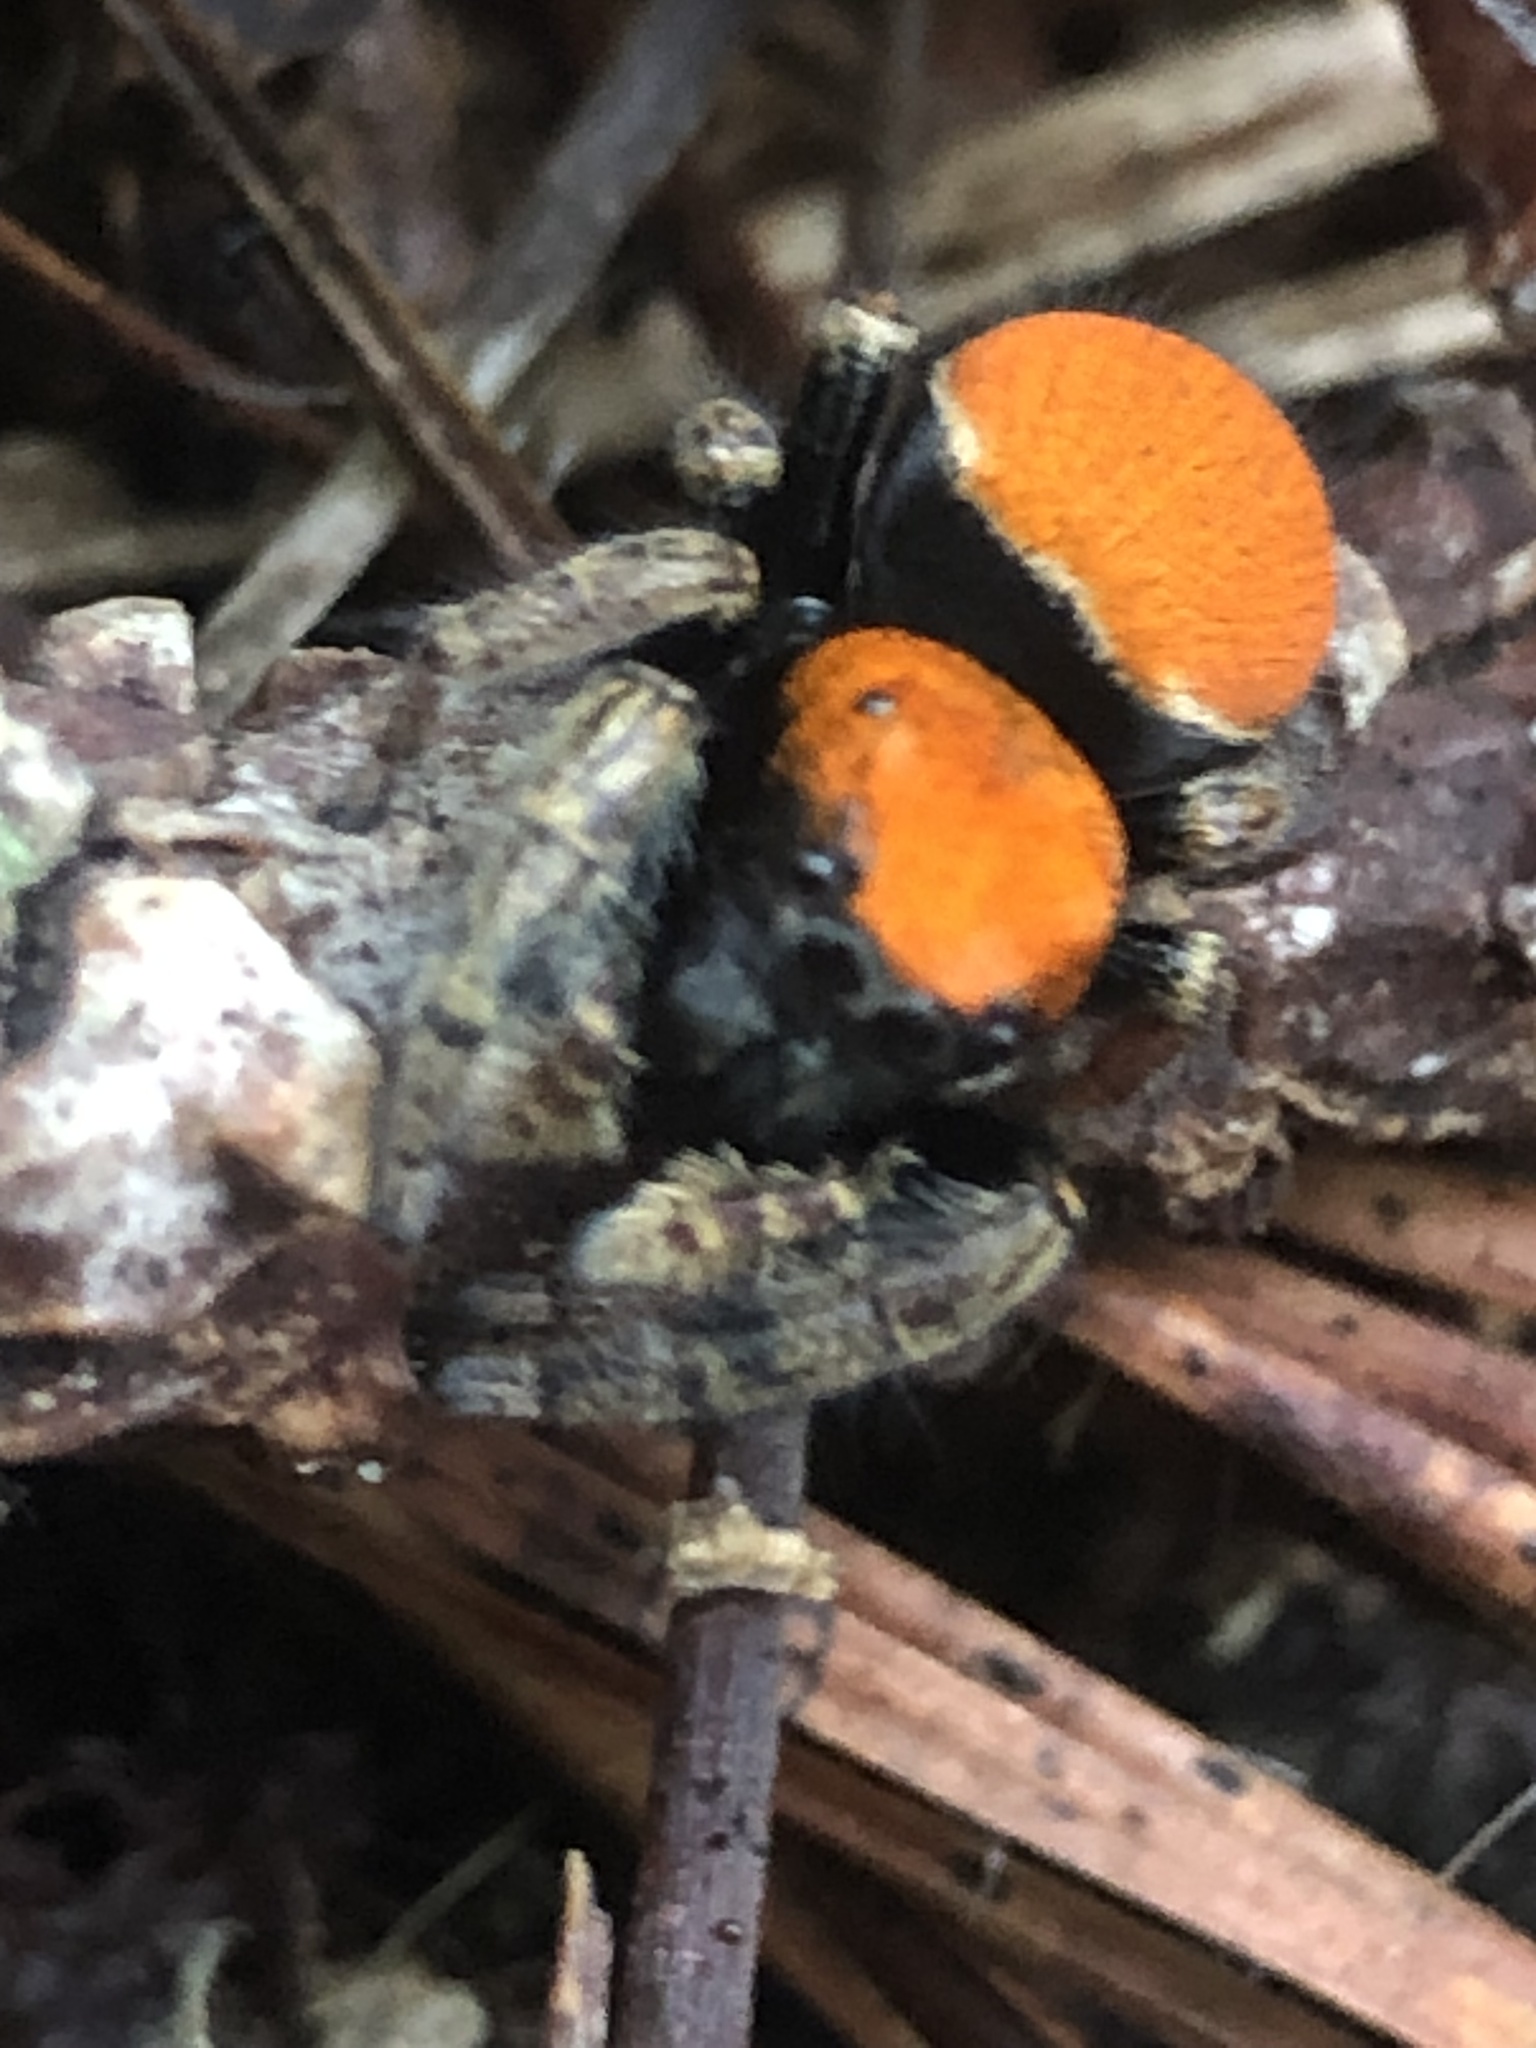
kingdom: Animalia
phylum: Arthropoda
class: Arachnida
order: Araneae
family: Salticidae
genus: Phidippus
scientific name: Phidippus whitmani
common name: Whitman's jumping spider
